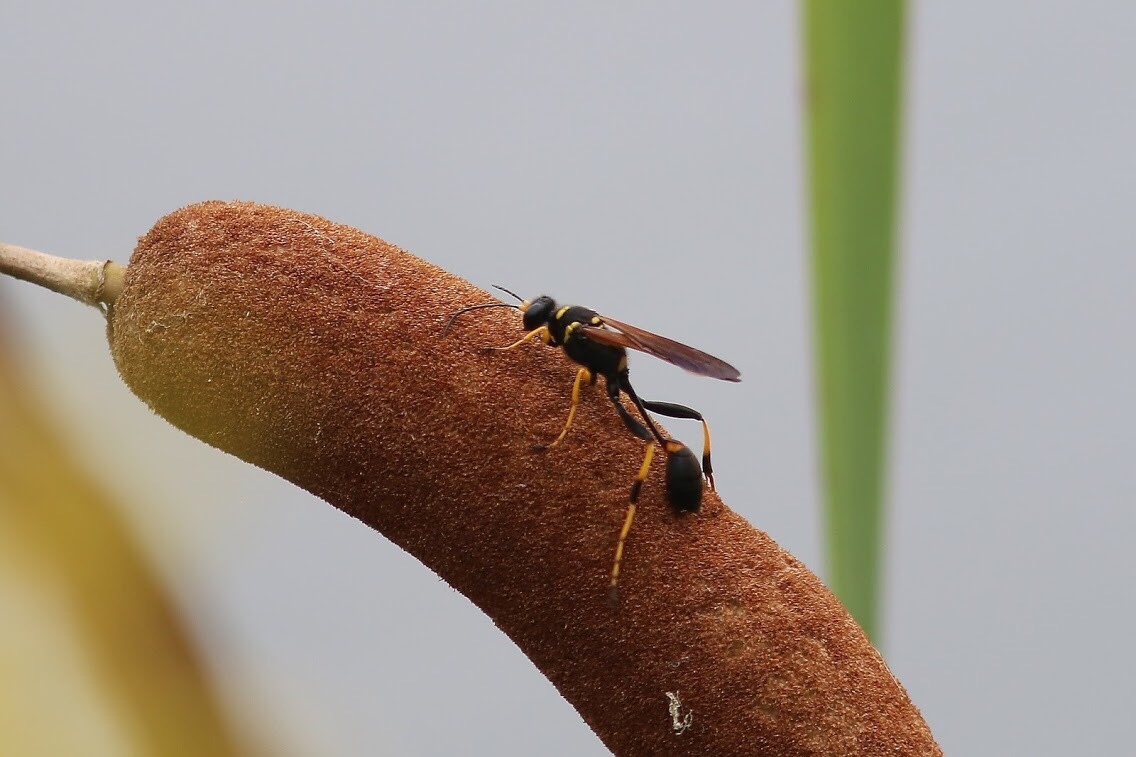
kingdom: Animalia
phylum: Arthropoda
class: Insecta
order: Hymenoptera
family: Sphecidae
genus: Sceliphron
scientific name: Sceliphron caementarium
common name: Mud dauber
